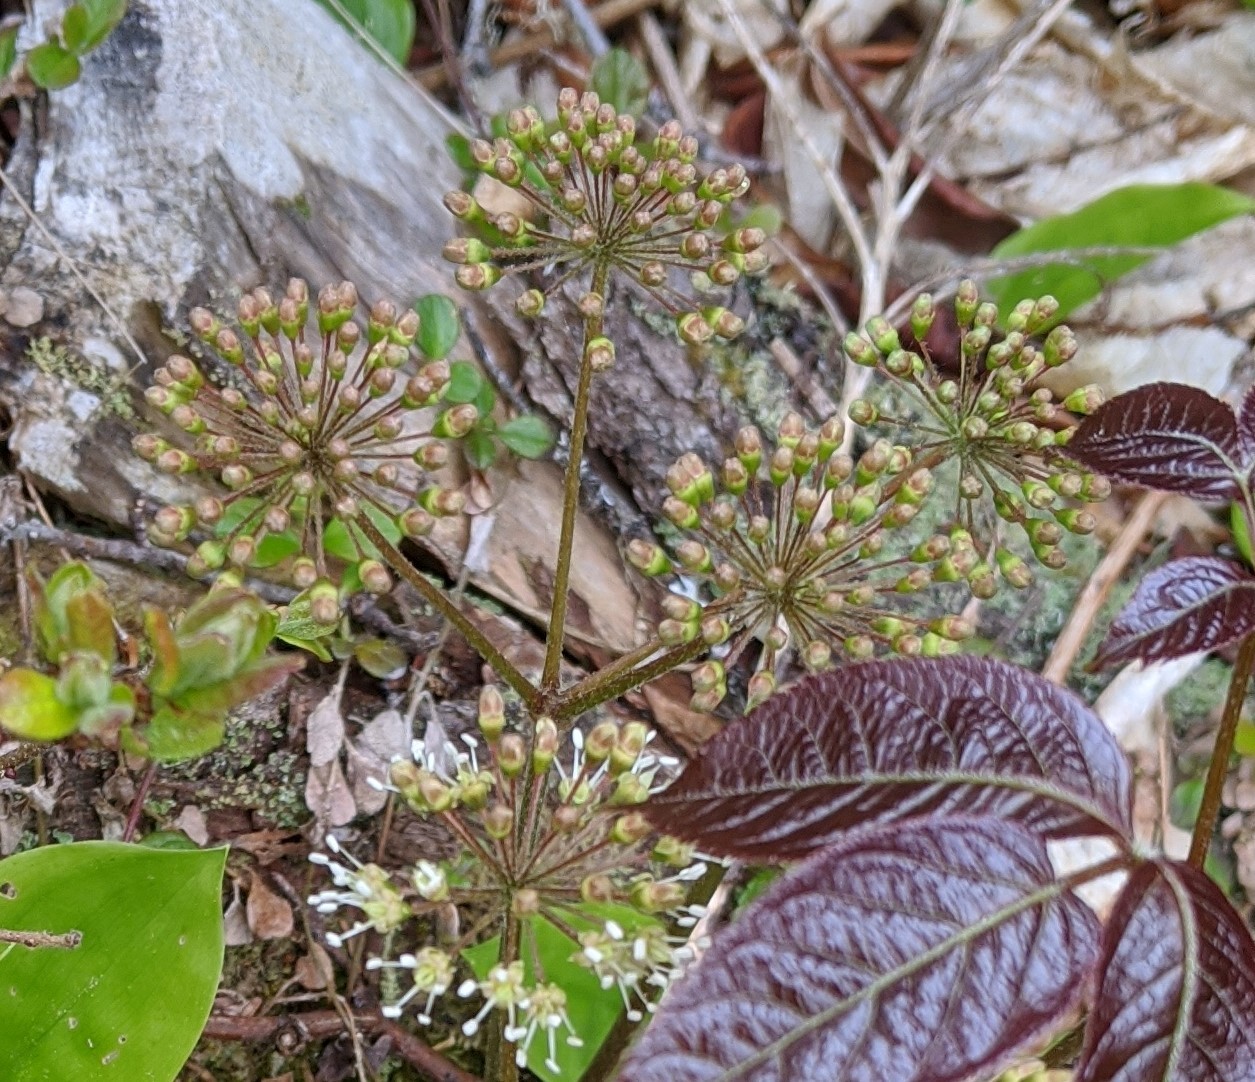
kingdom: Plantae
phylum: Tracheophyta
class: Magnoliopsida
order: Apiales
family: Araliaceae
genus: Aralia
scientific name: Aralia nudicaulis
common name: Wild sarsaparilla
